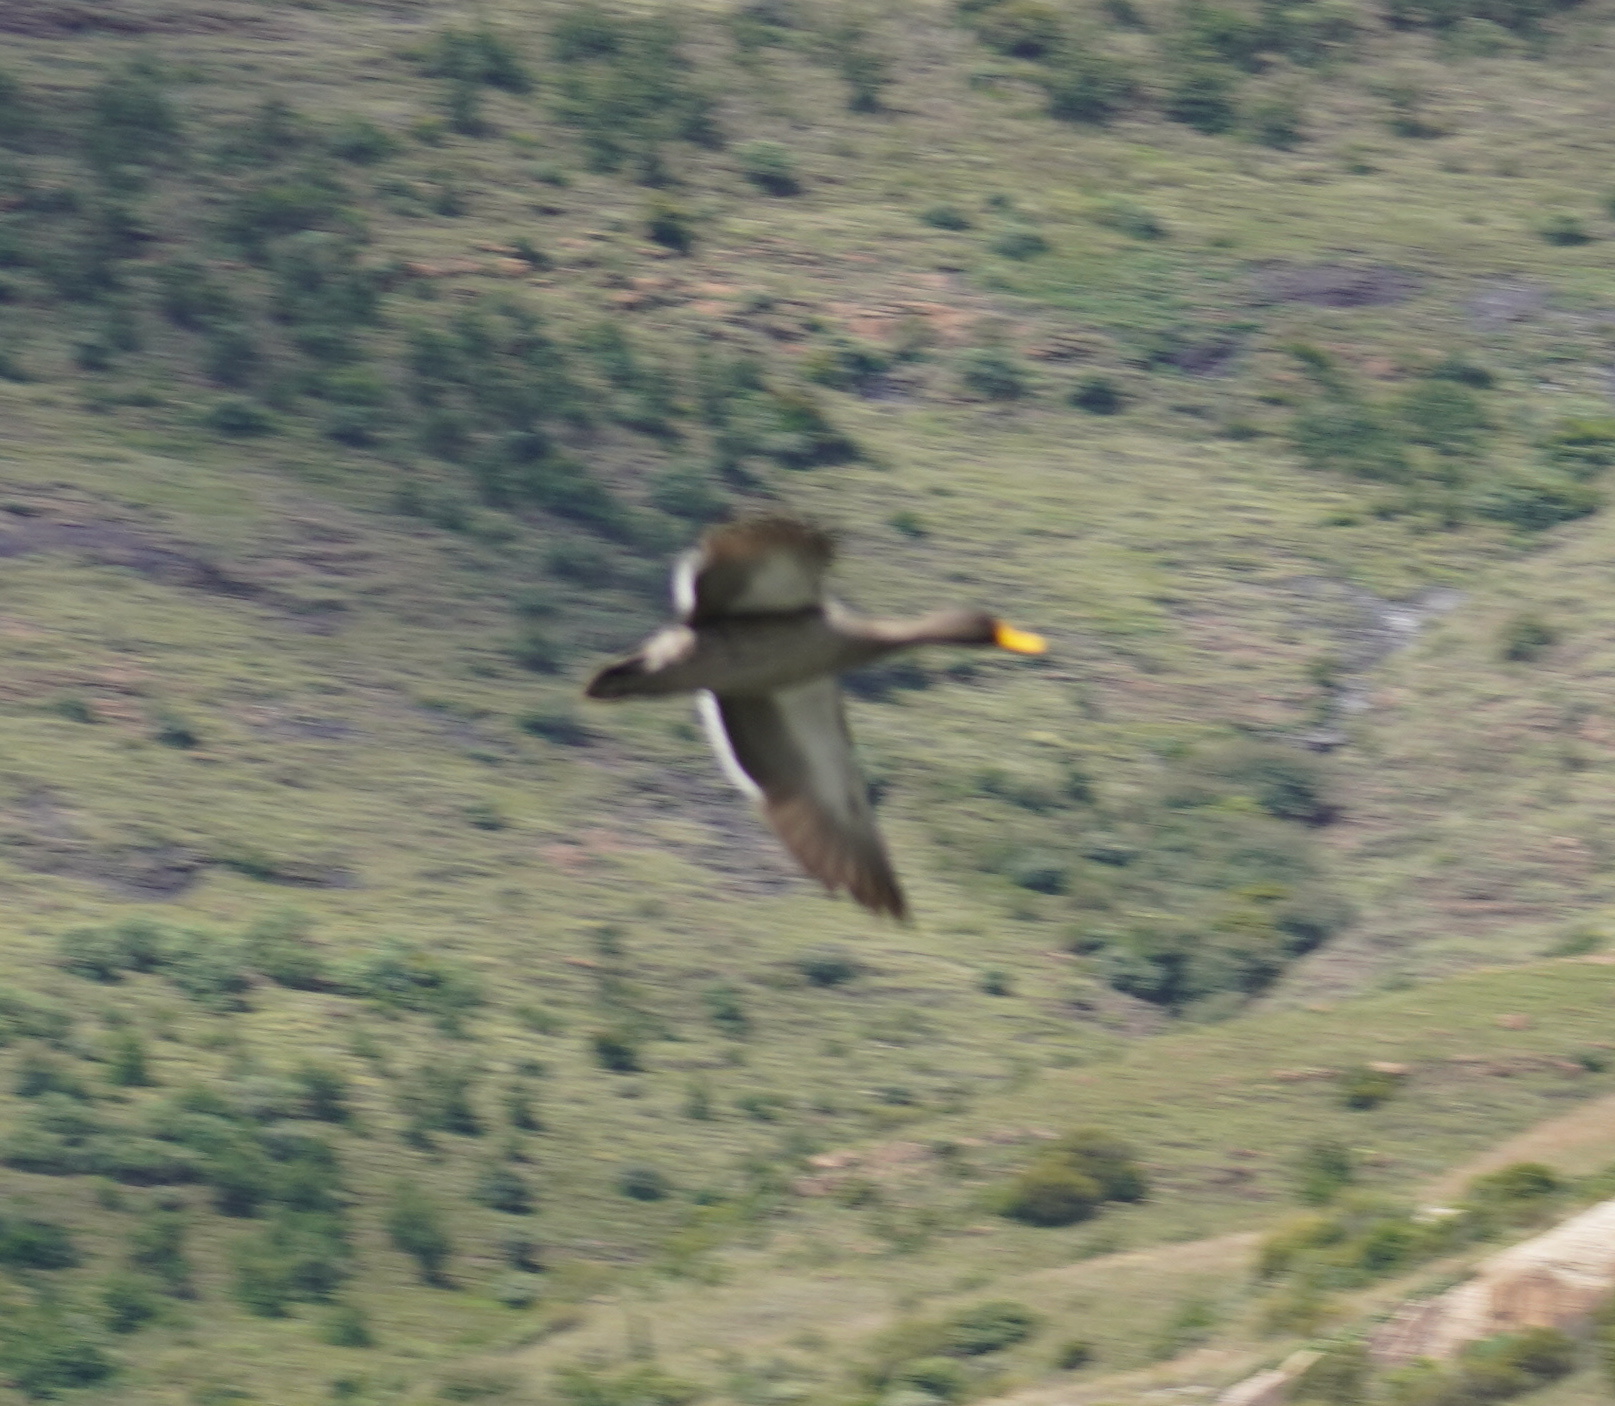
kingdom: Animalia
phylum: Chordata
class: Aves
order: Anseriformes
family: Anatidae
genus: Anas
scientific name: Anas undulata
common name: Yellow-billed duck
